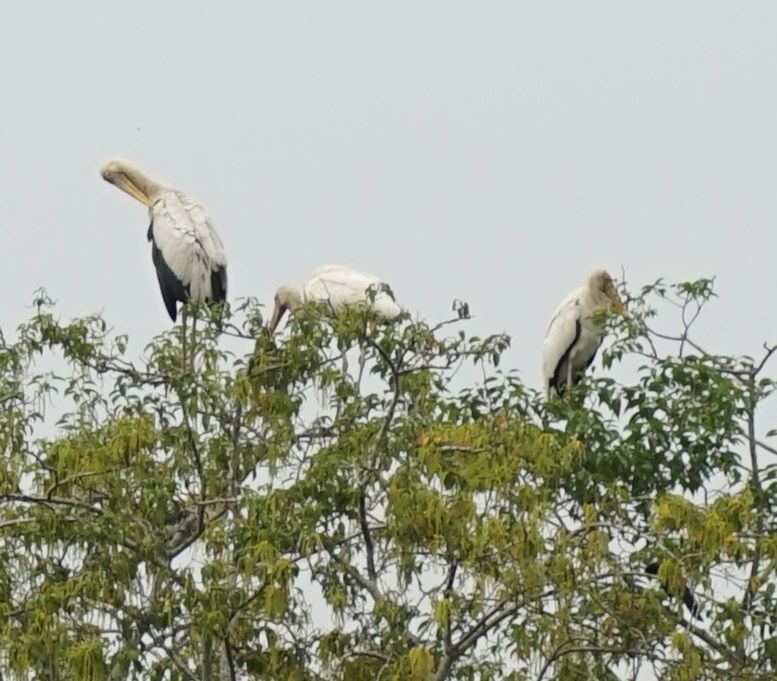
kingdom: Animalia
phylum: Chordata
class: Aves
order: Ciconiiformes
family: Ciconiidae
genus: Mycteria
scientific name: Mycteria cinerea
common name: Milky stork
